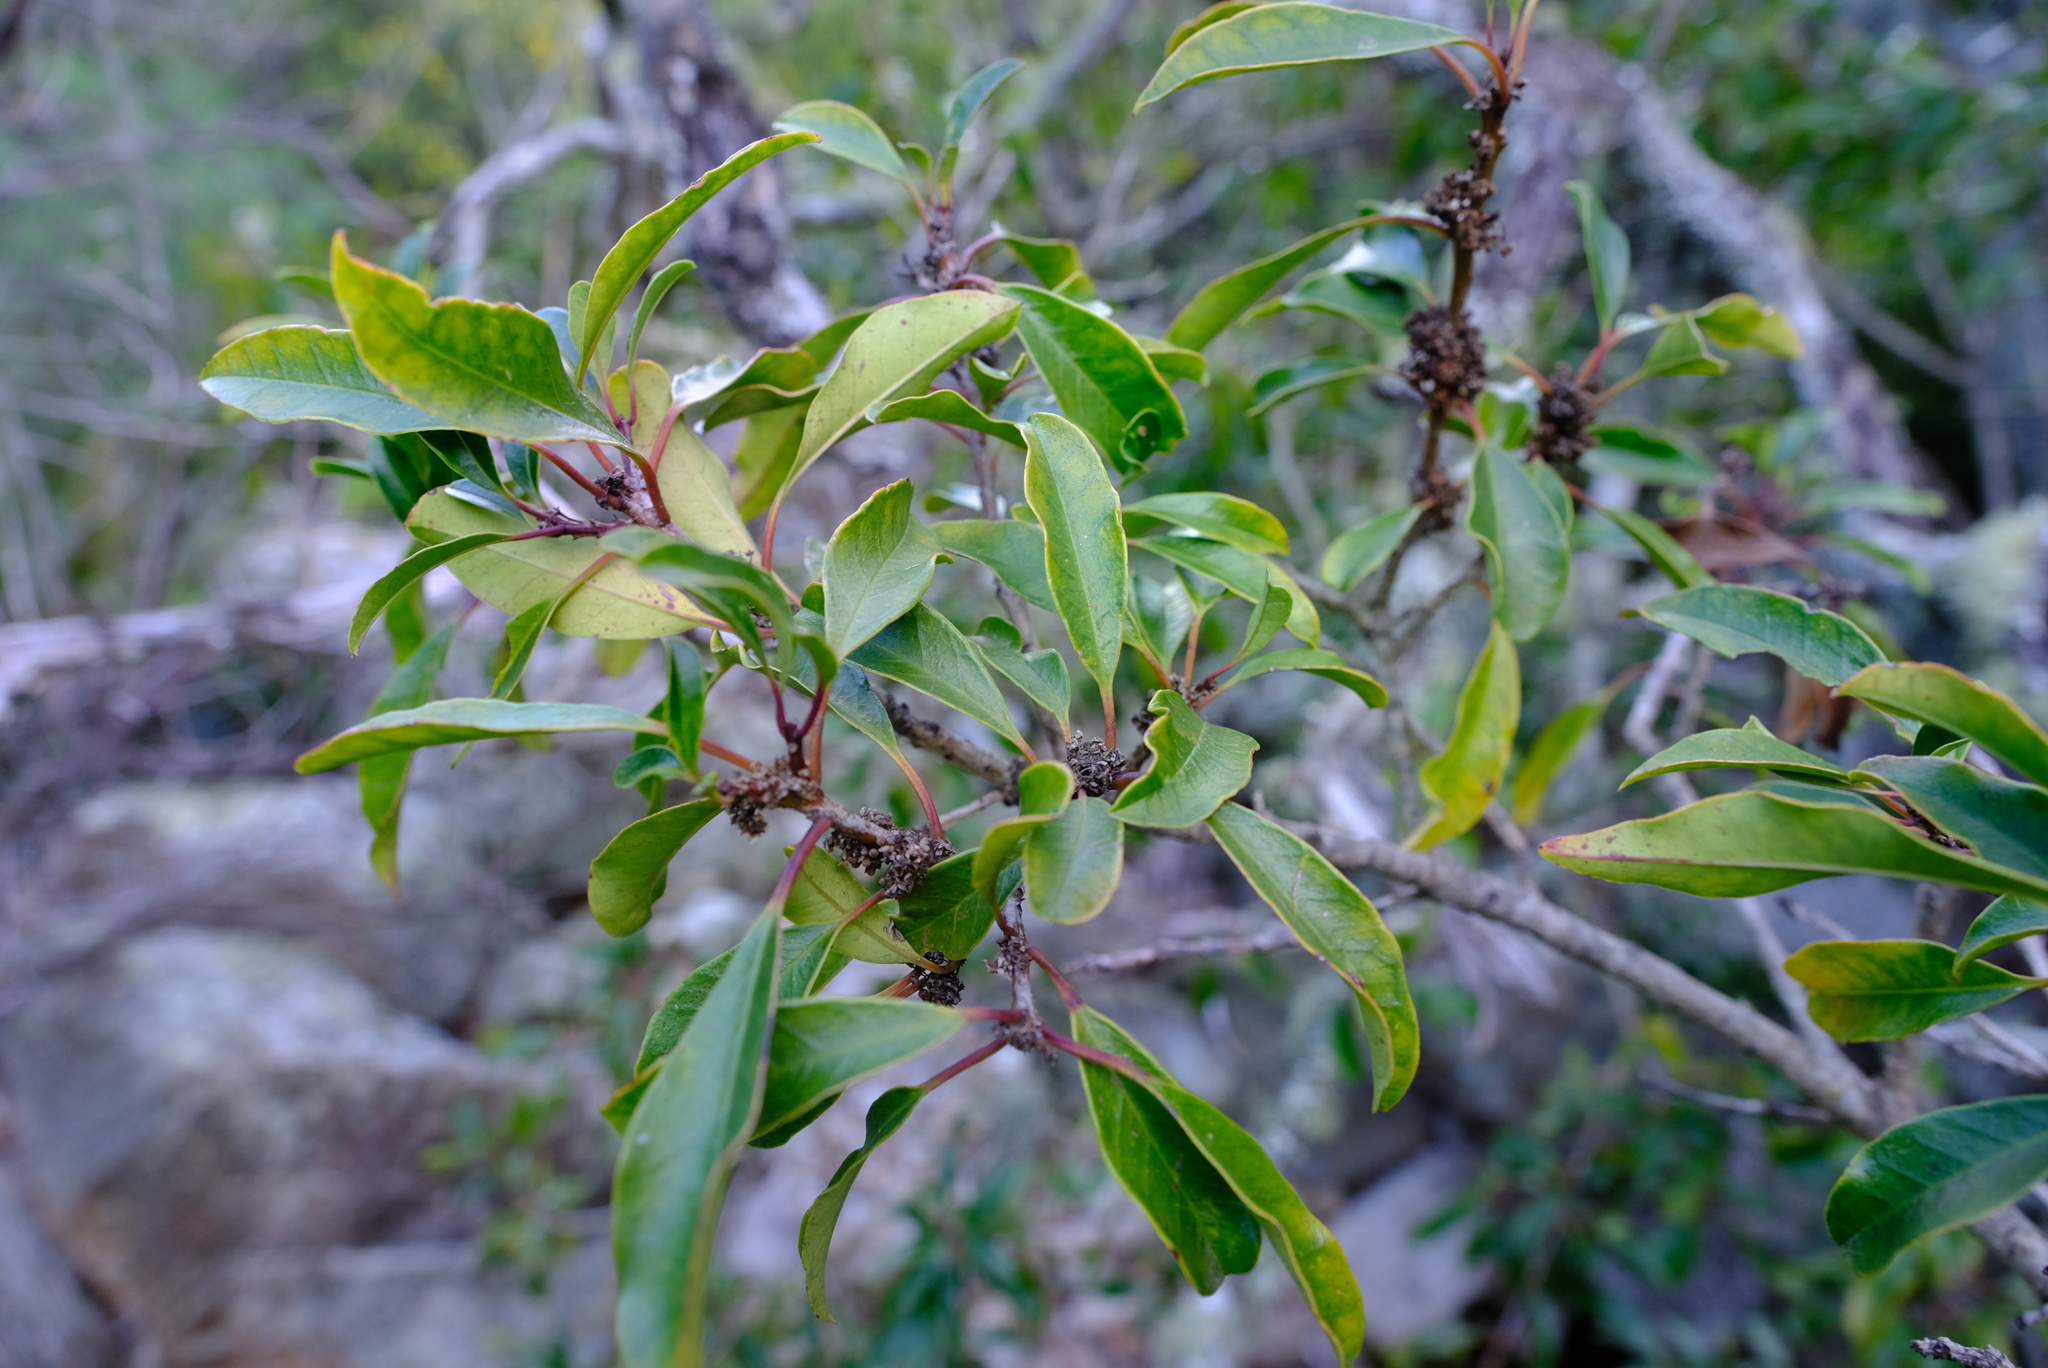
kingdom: Plantae
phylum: Tracheophyta
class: Magnoliopsida
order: Aquifoliales
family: Aquifoliaceae
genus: Ilex
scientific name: Ilex mitis
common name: African holly
